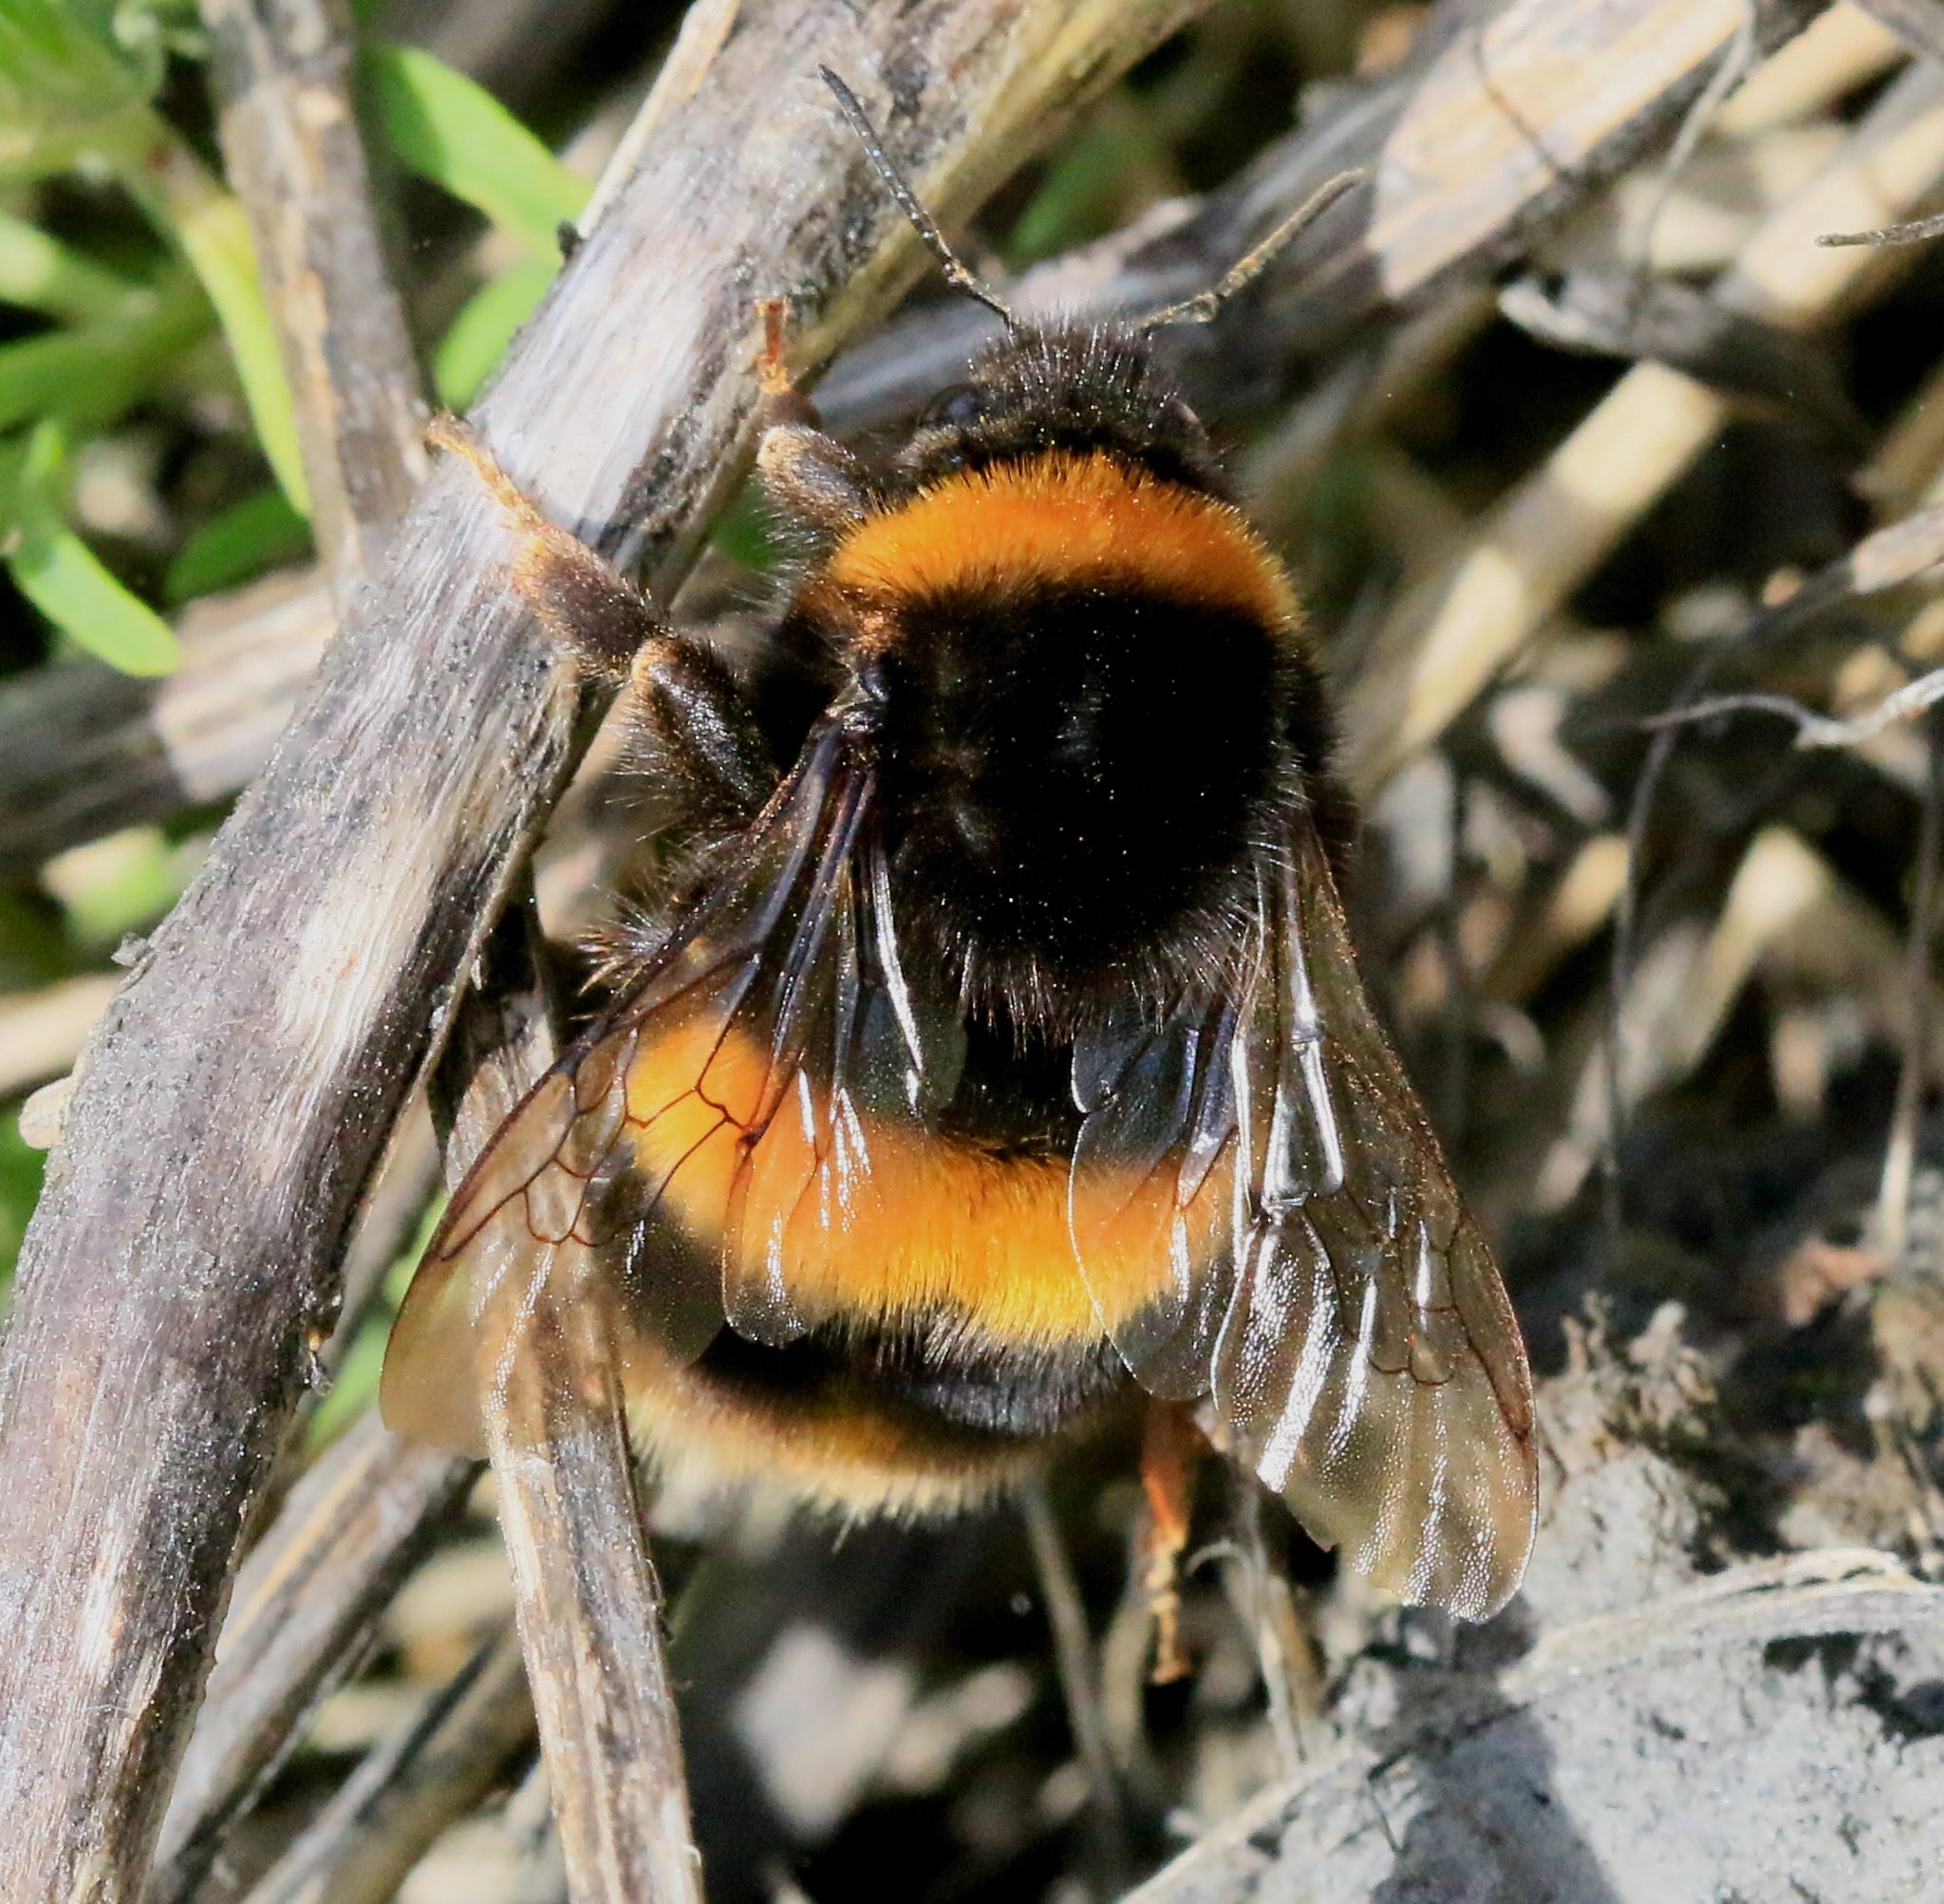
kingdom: Animalia
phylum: Arthropoda
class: Insecta
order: Hymenoptera
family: Apidae
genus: Bombus
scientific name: Bombus terrestris
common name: Buff-tailed bumblebee
